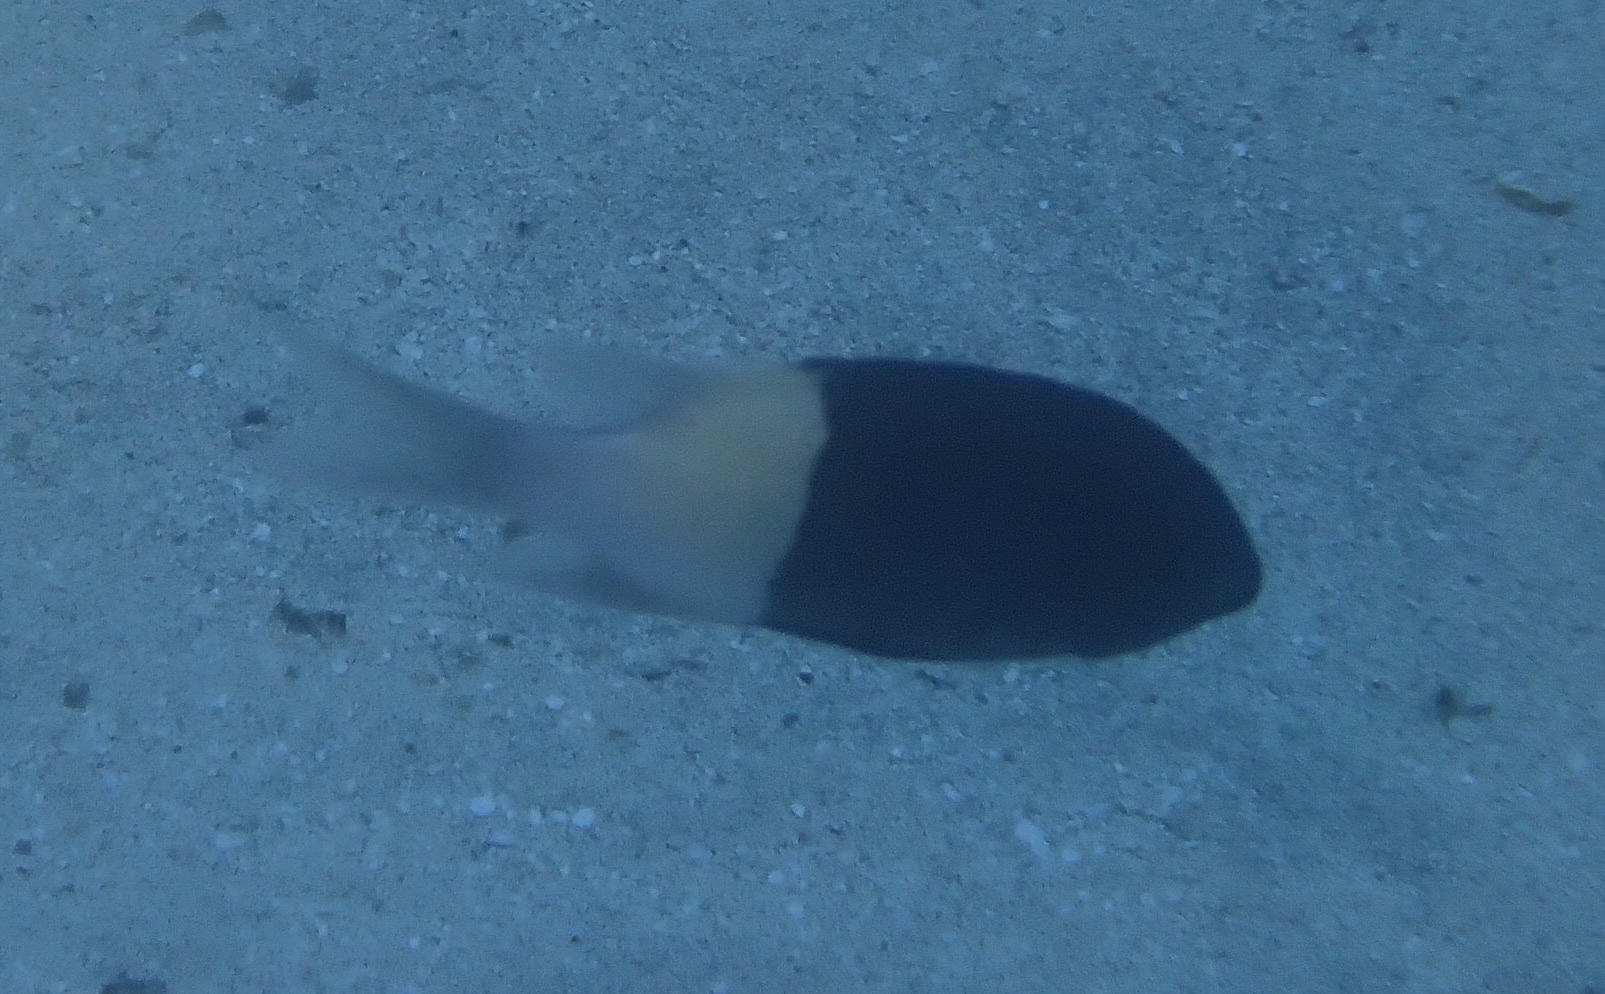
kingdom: Animalia
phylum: Chordata
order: Perciformes
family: Pomacentridae
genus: Chromis
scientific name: Chromis dimidiata
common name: Half-and-half chromis
